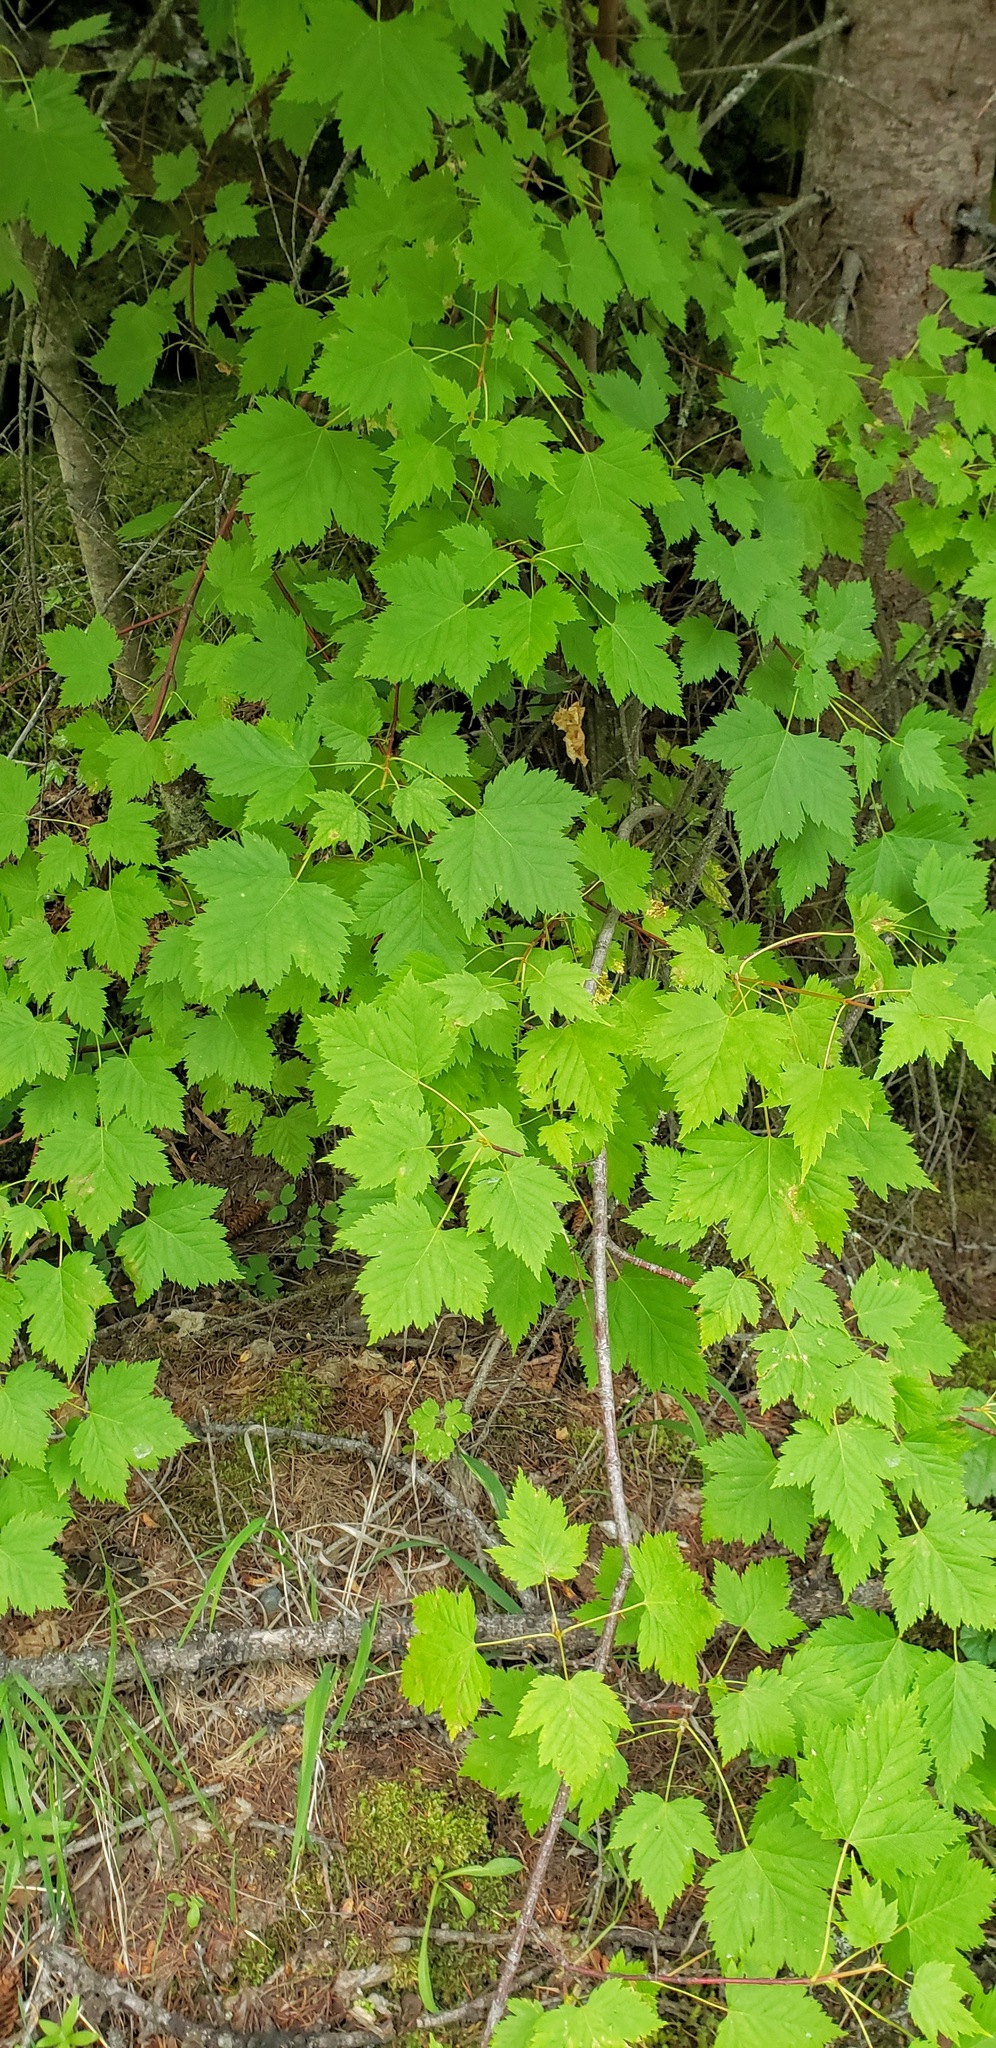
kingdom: Plantae
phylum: Tracheophyta
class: Magnoliopsida
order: Sapindales
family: Sapindaceae
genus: Acer
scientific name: Acer glabrum
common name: Rocky mountain maple
